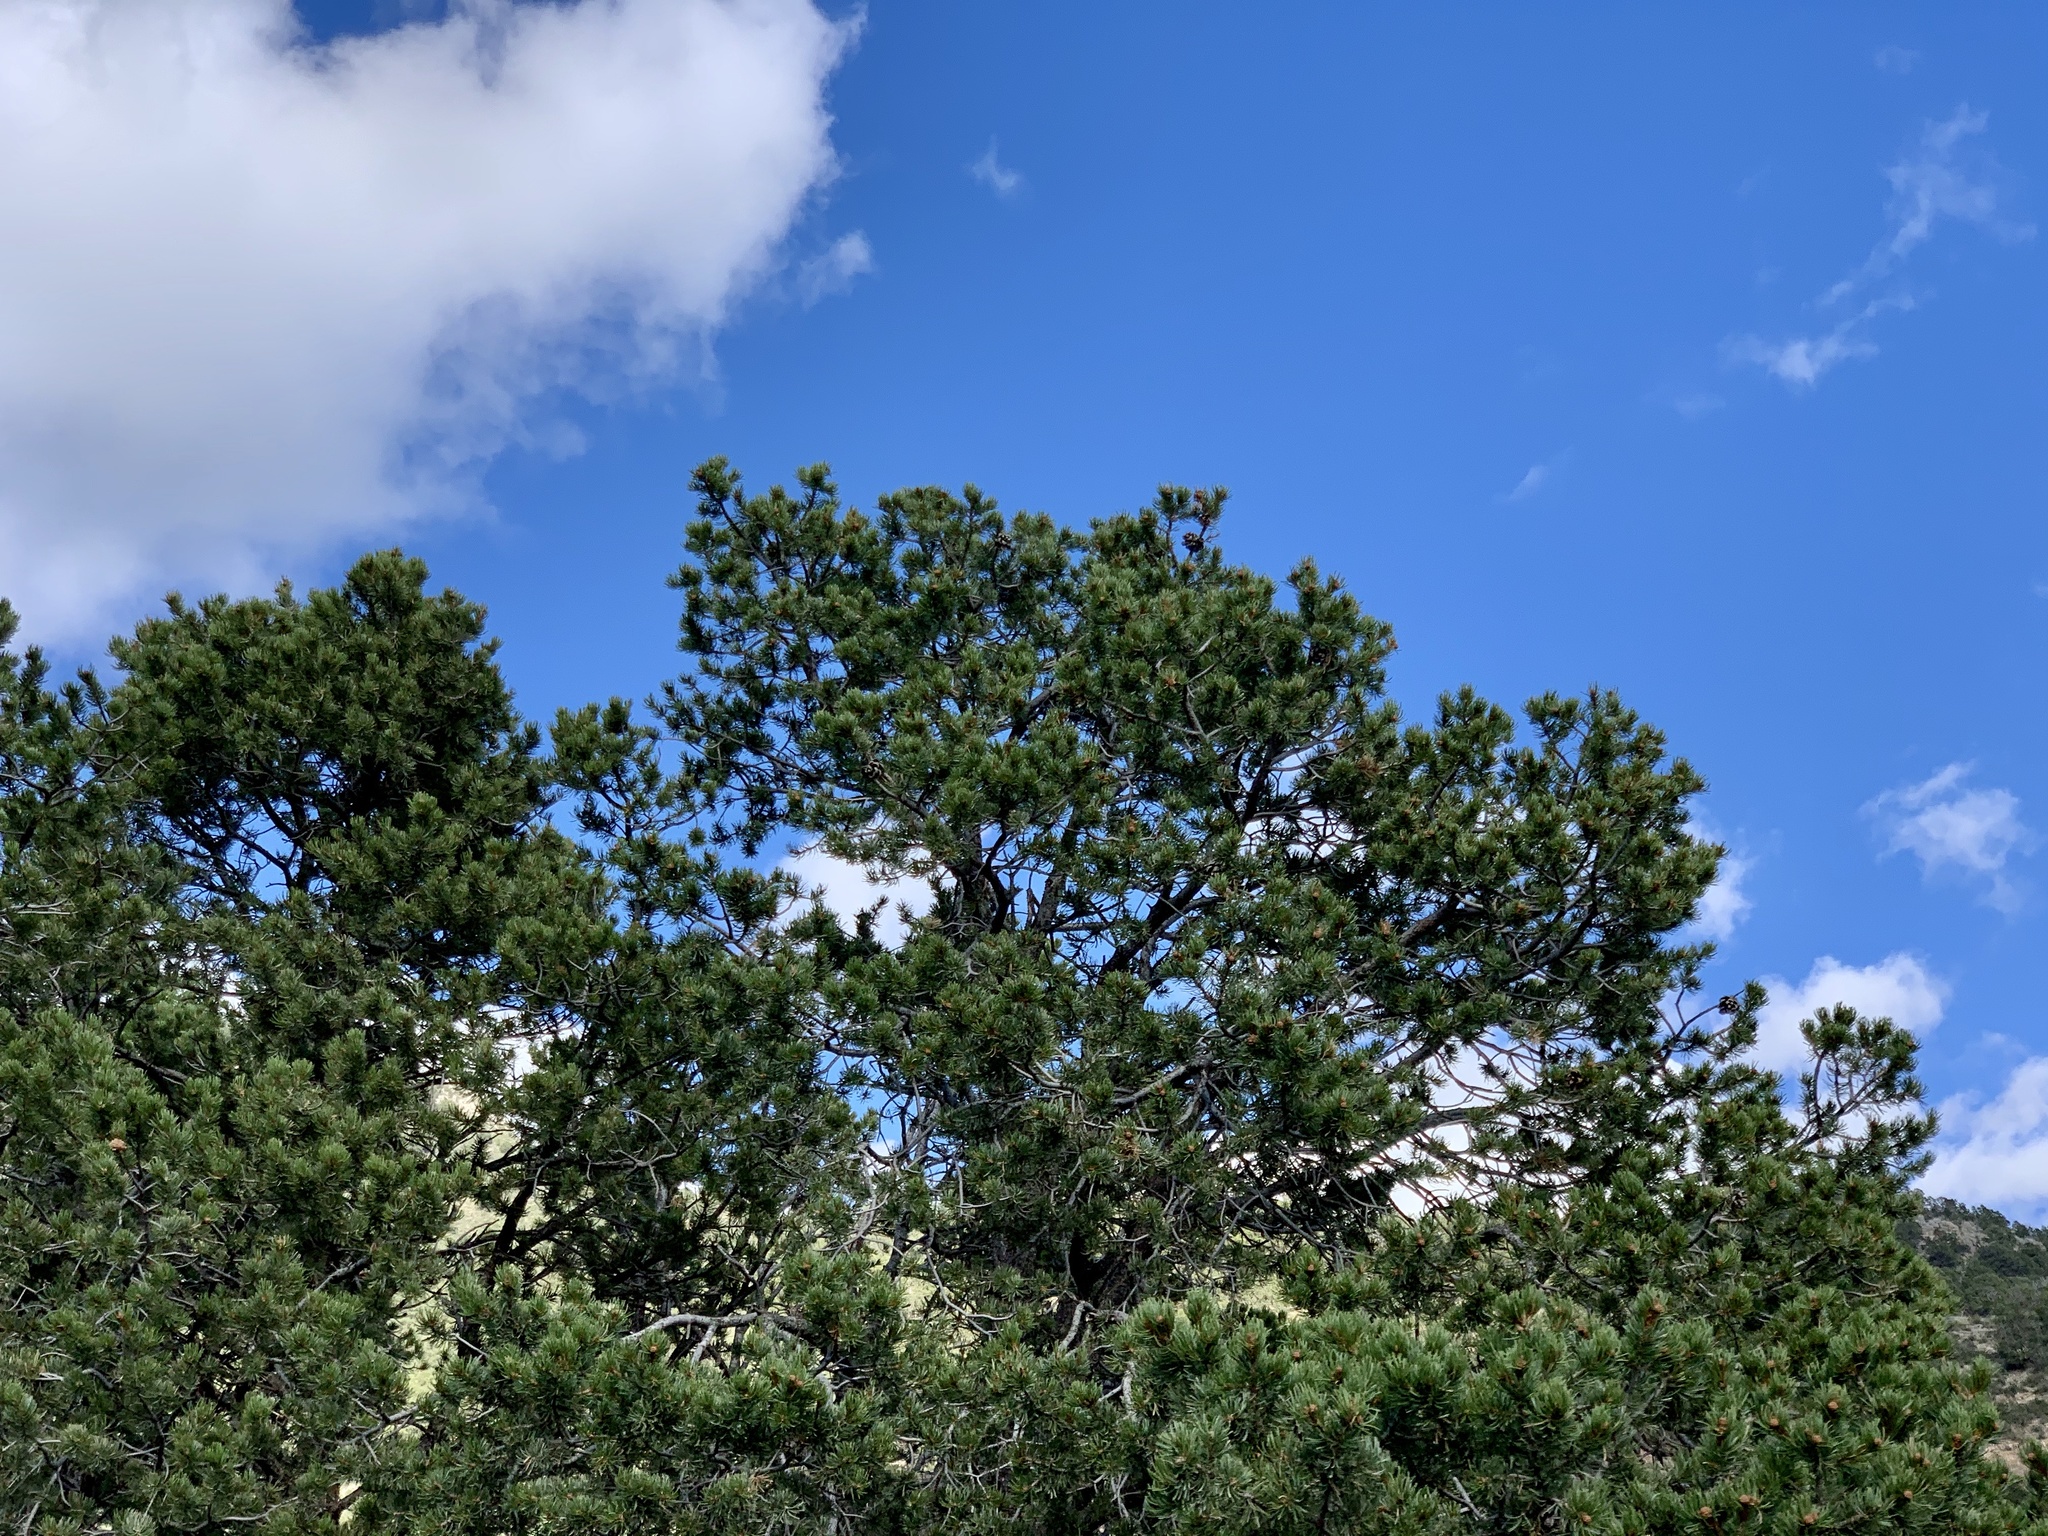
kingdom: Plantae
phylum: Tracheophyta
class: Pinopsida
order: Pinales
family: Pinaceae
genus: Pinus
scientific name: Pinus edulis
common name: Colorado pinyon
